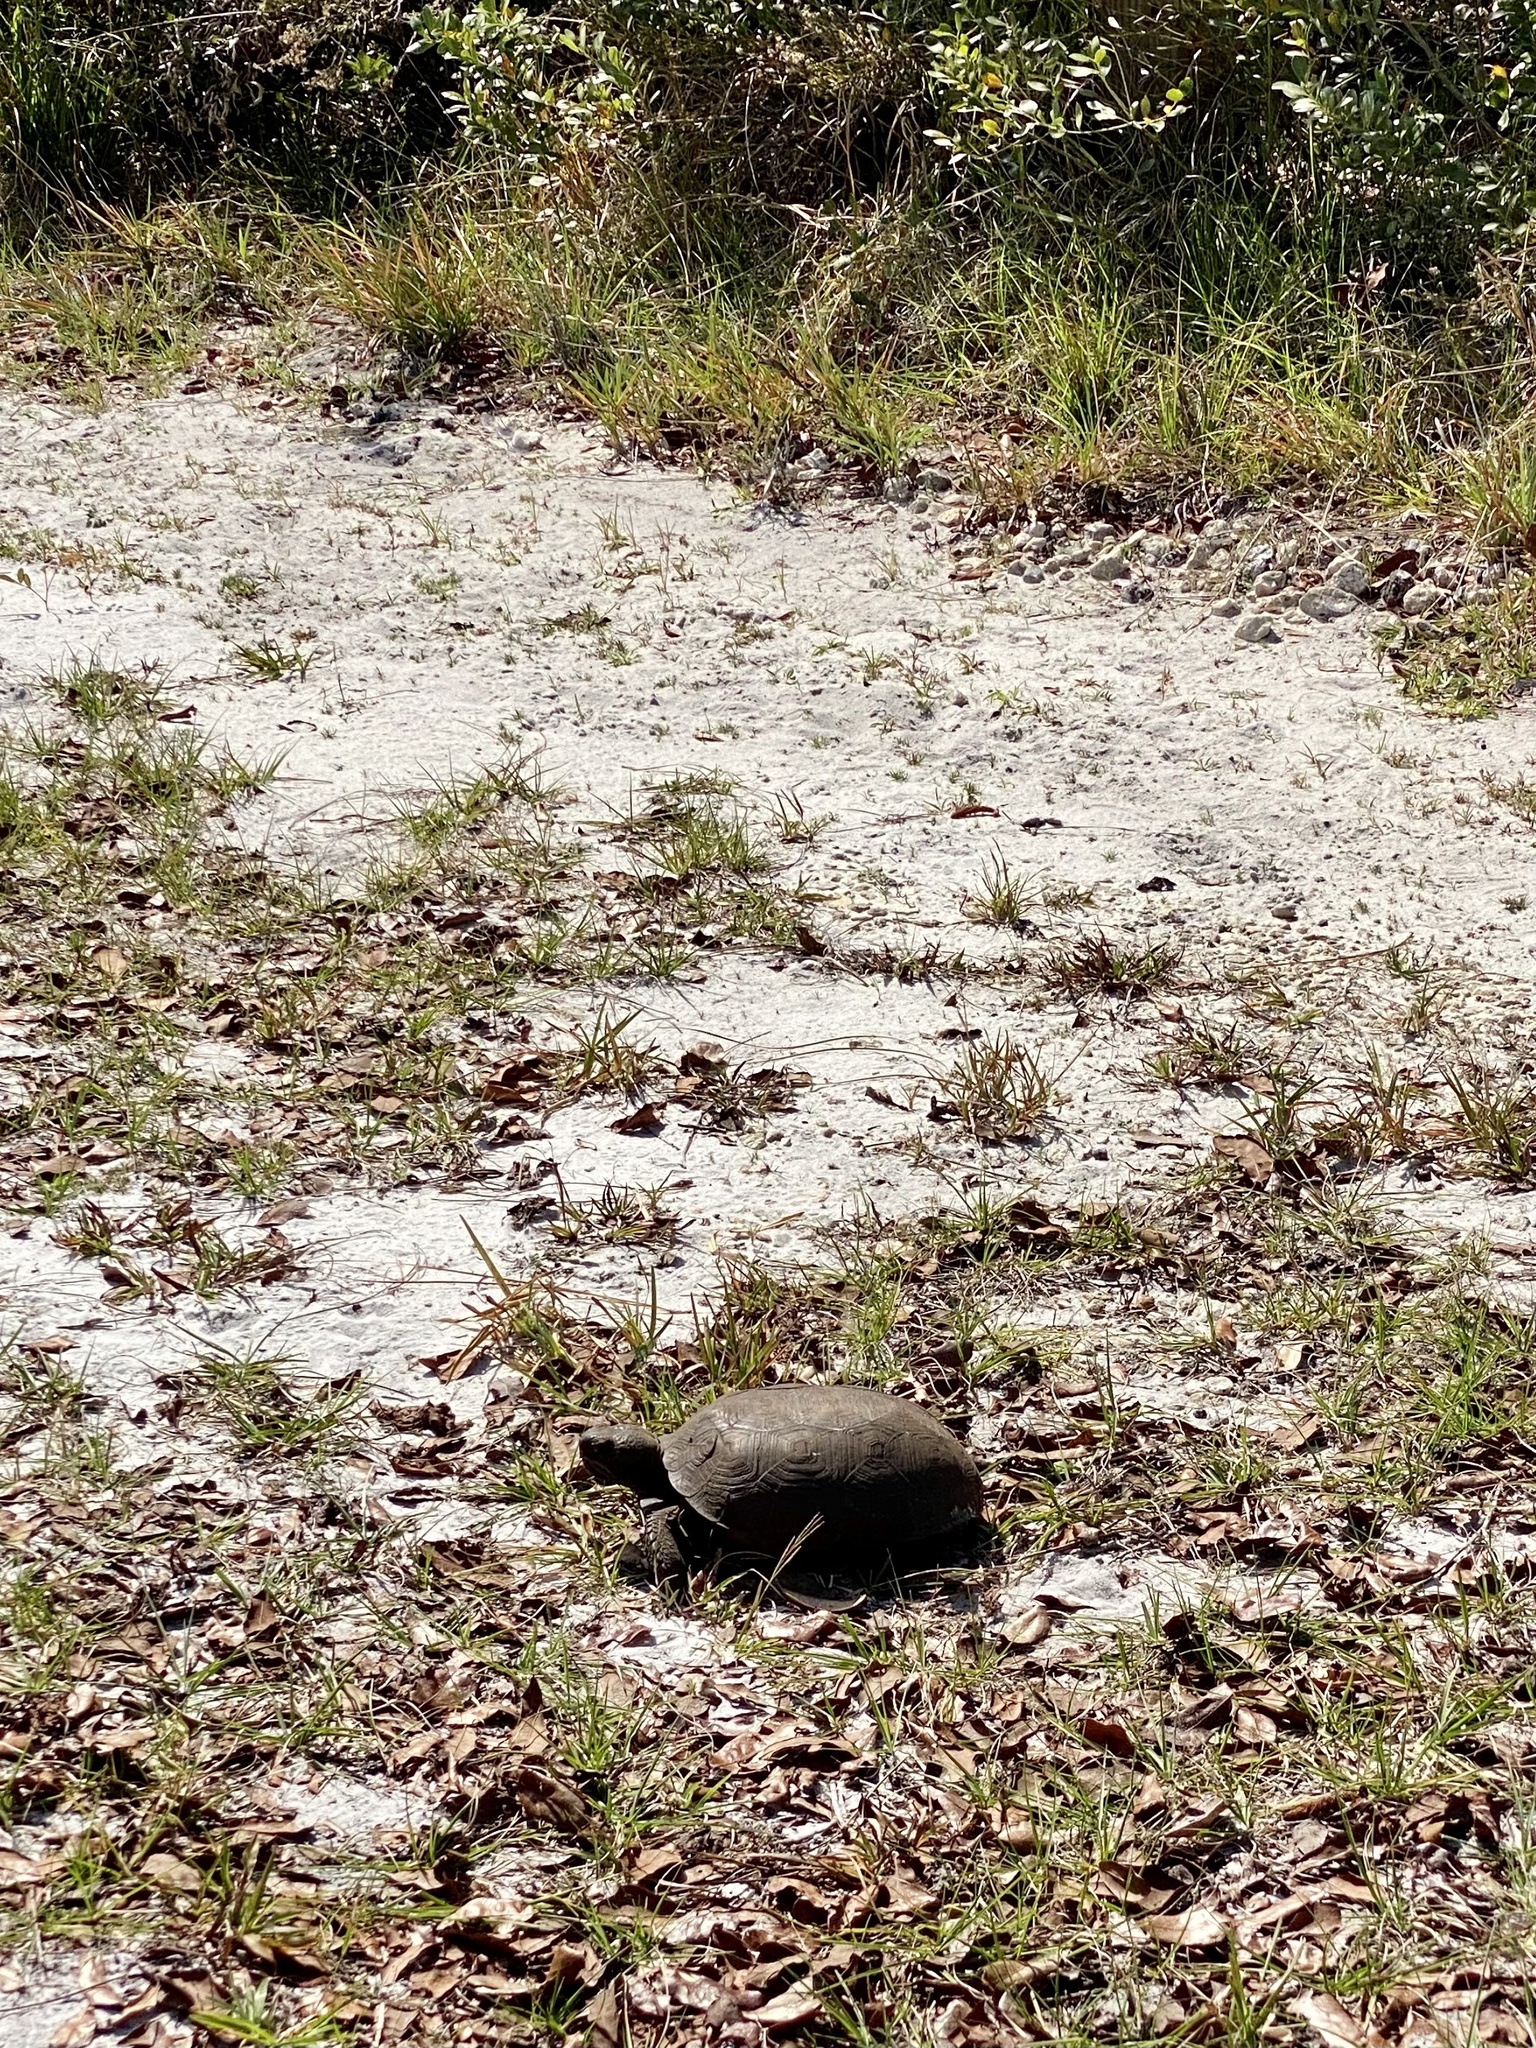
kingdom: Animalia
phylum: Chordata
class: Testudines
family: Testudinidae
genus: Gopherus
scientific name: Gopherus polyphemus
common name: Florida gopher tortoise
